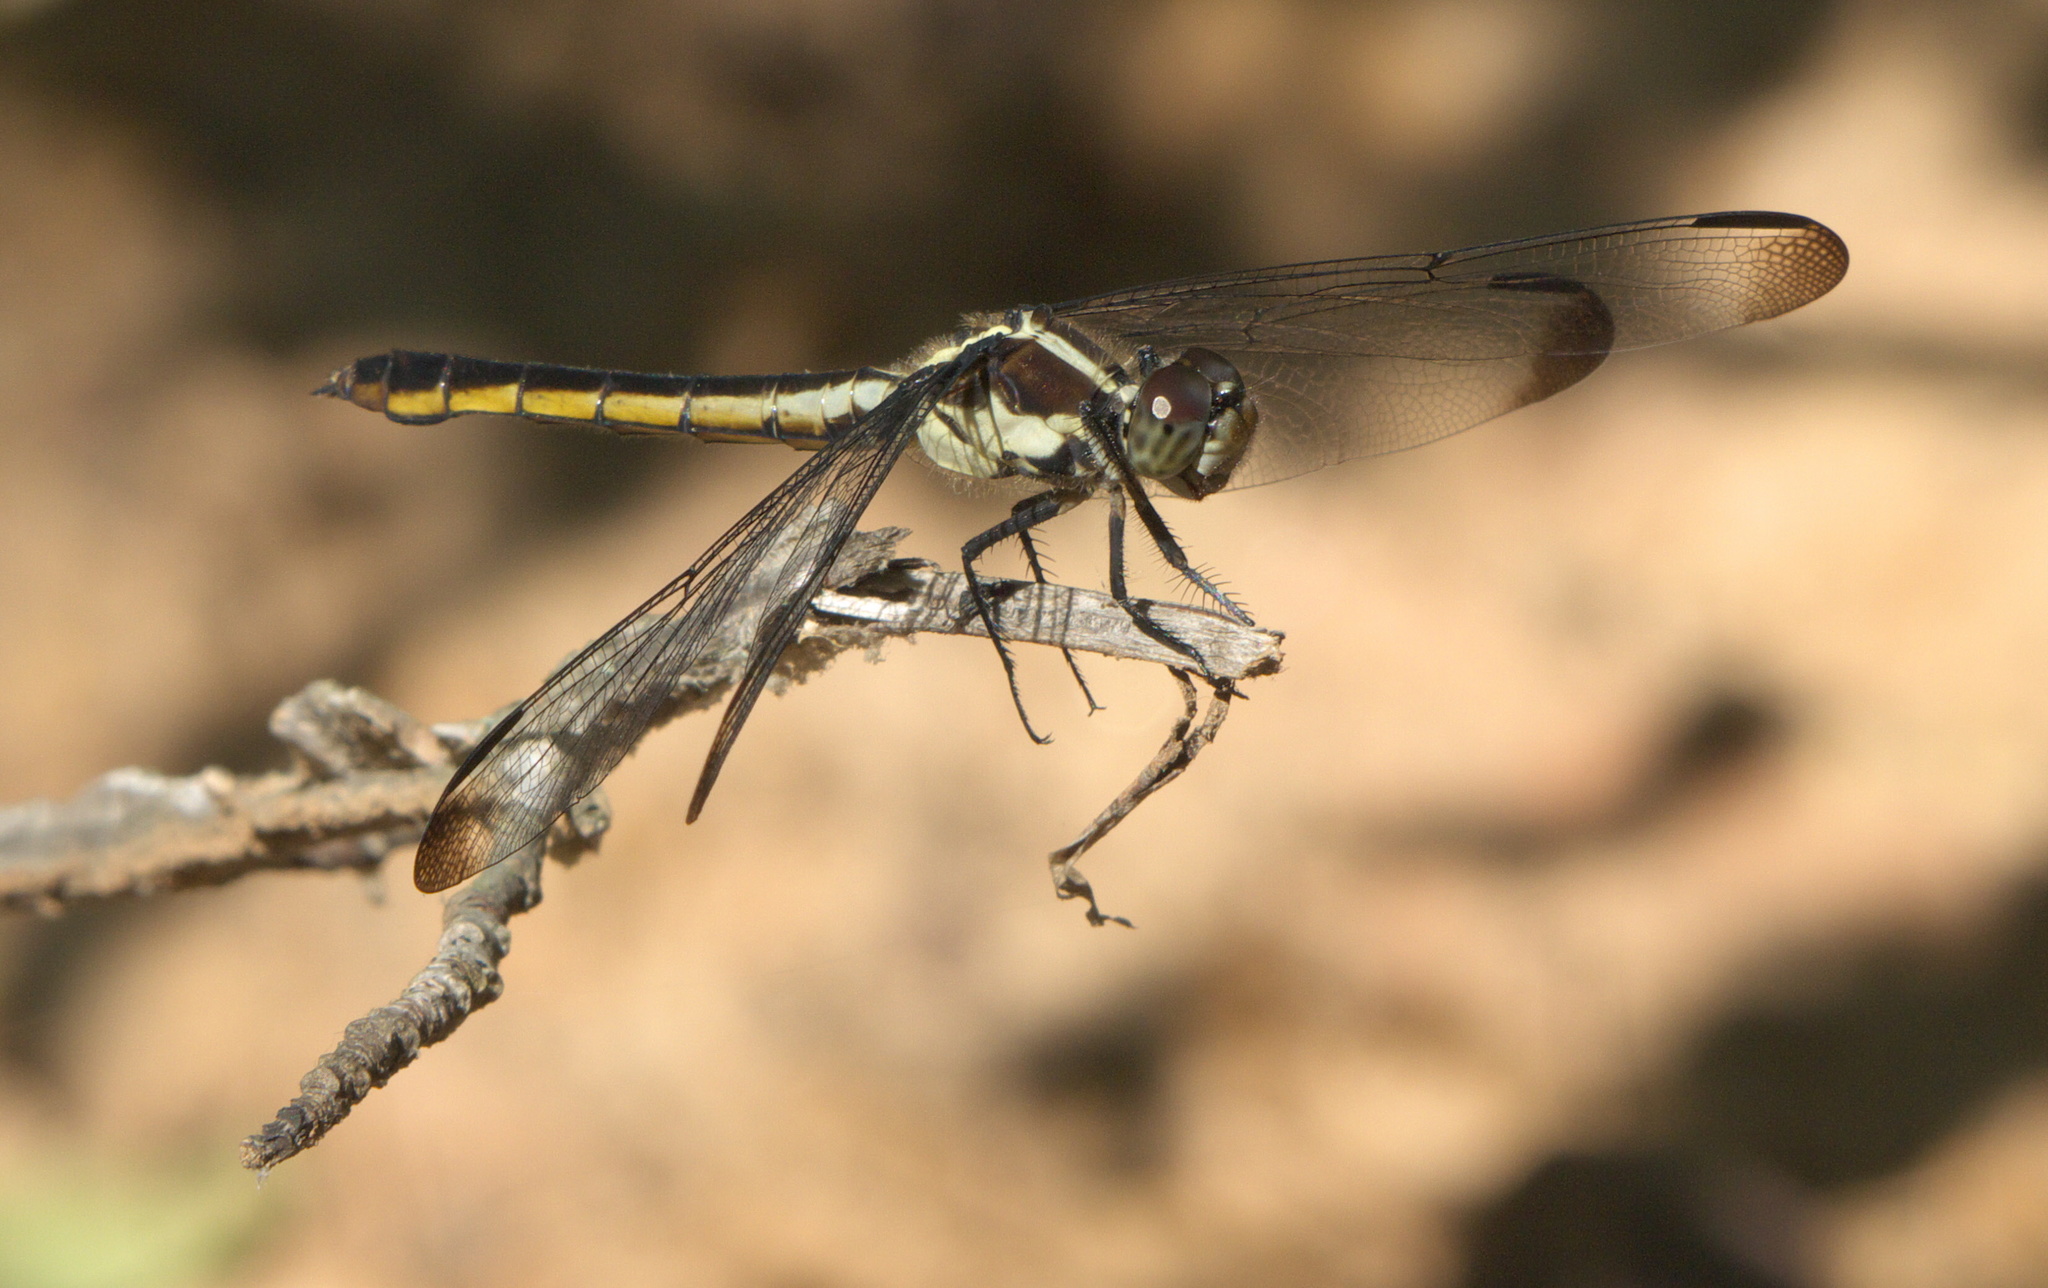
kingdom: Animalia
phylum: Arthropoda
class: Insecta
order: Odonata
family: Libellulidae
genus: Libellula
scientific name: Libellula incesta
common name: Slaty skimmer
